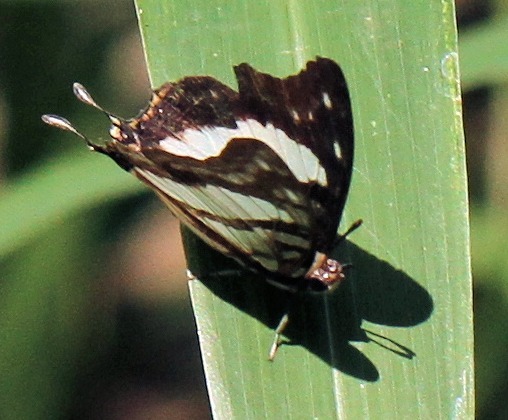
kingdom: Animalia
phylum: Arthropoda
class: Insecta
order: Lepidoptera
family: Nymphalidae
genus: Polyura
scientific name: Polyura
